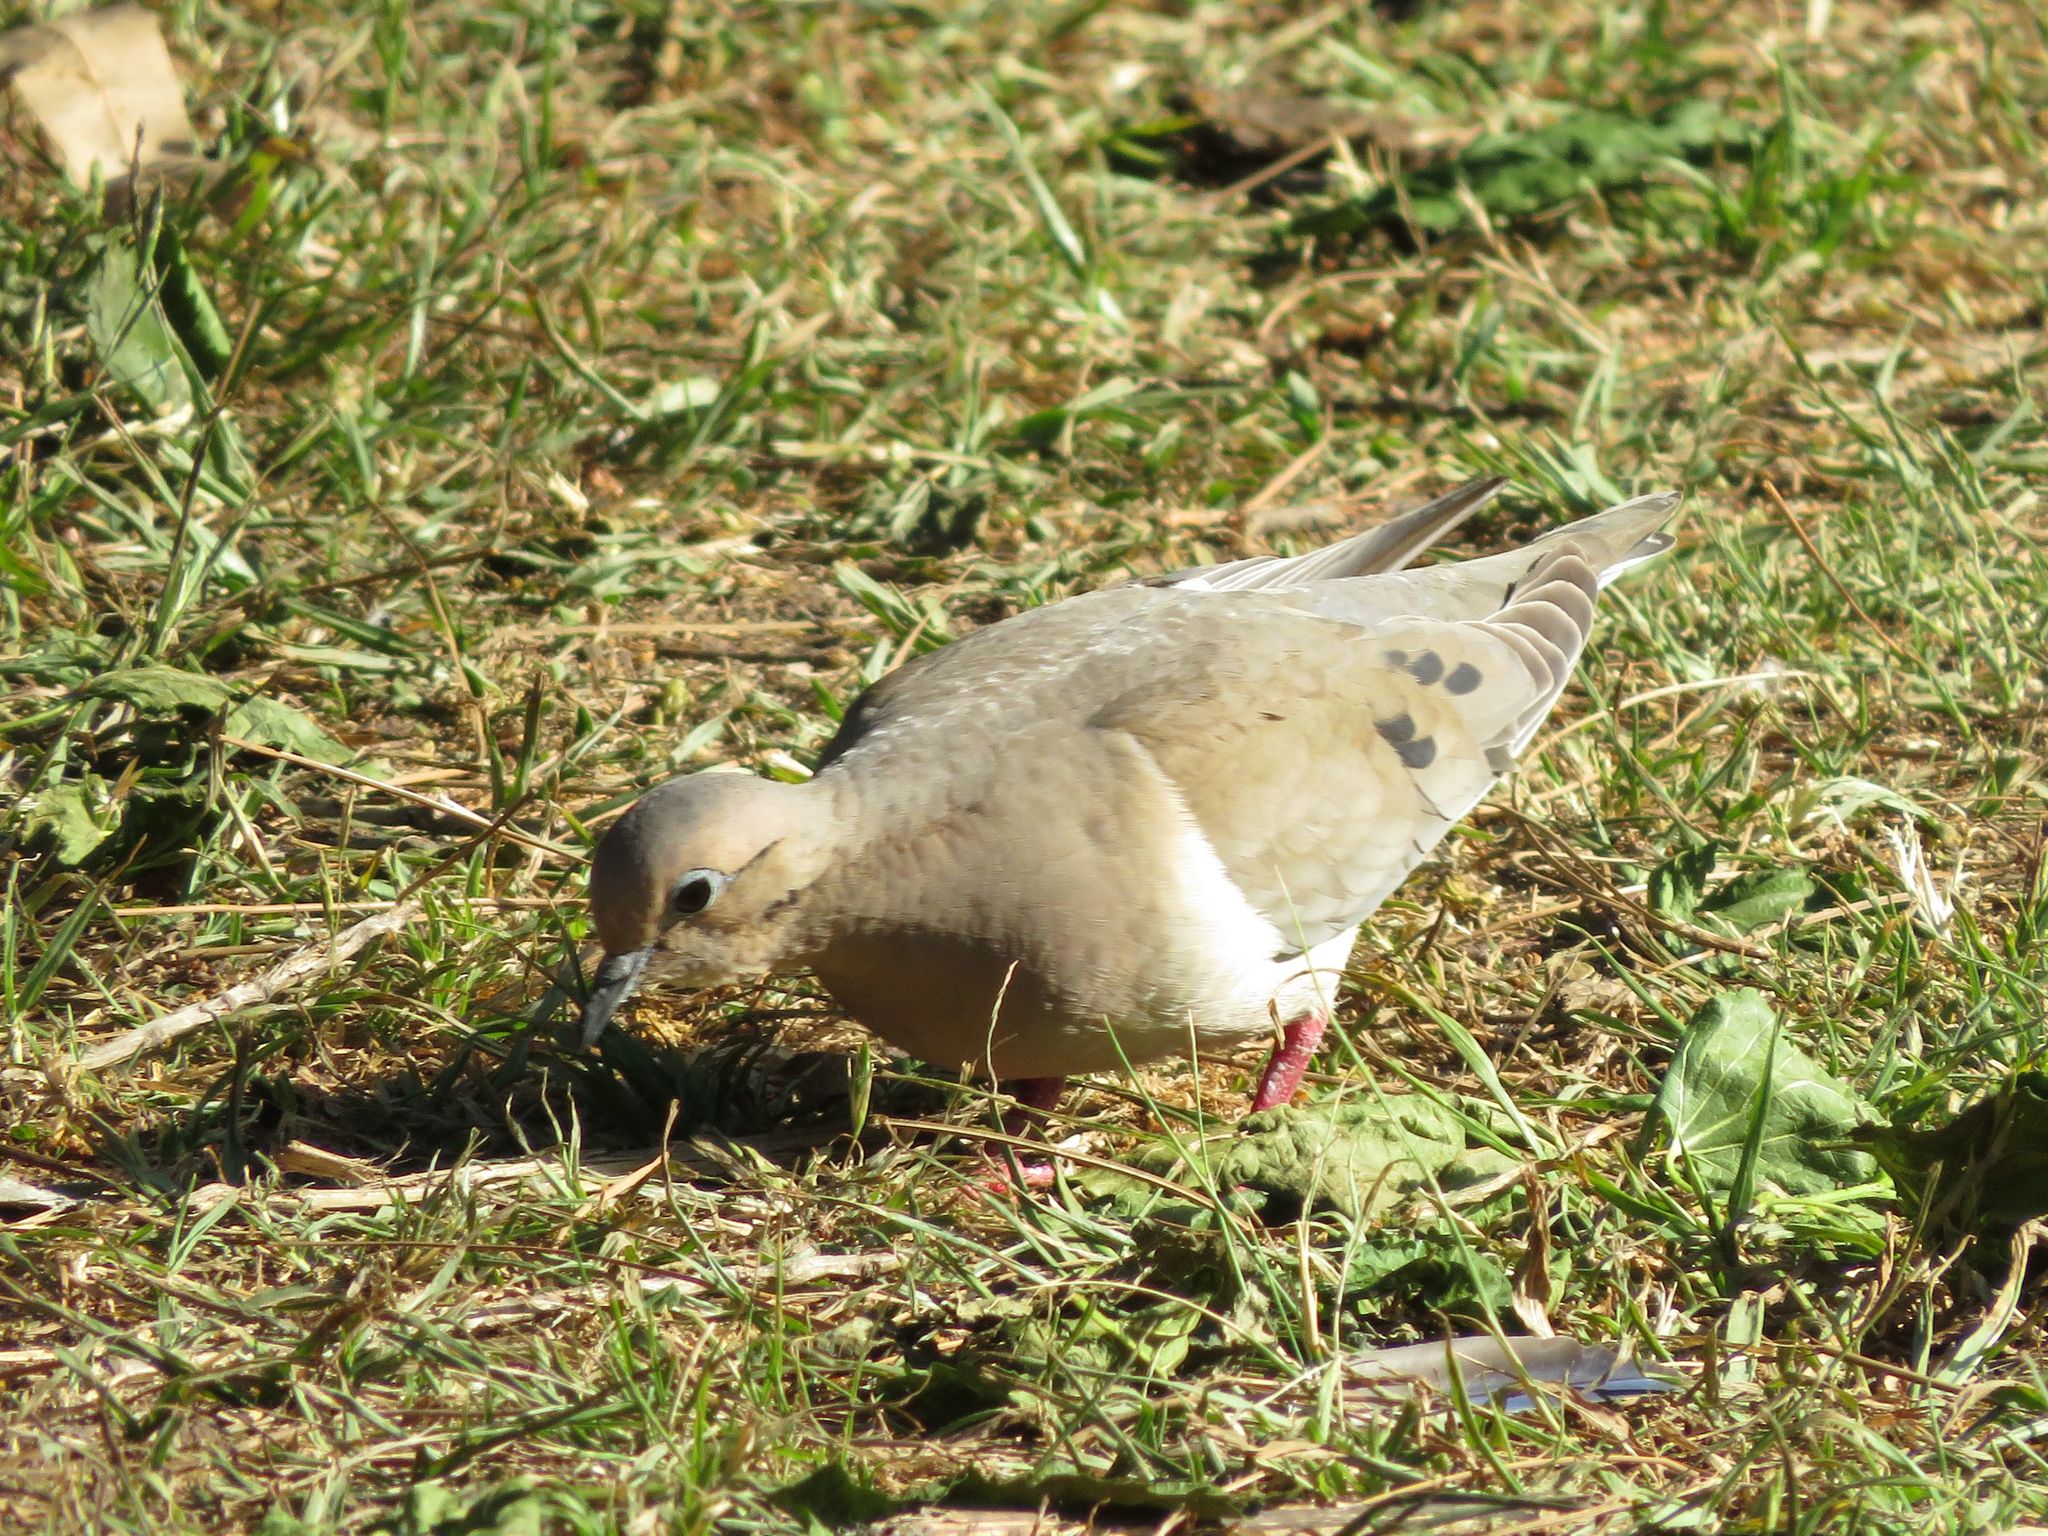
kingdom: Animalia
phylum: Chordata
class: Aves
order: Columbiformes
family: Columbidae
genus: Zenaida
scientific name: Zenaida auriculata
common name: Eared dove
